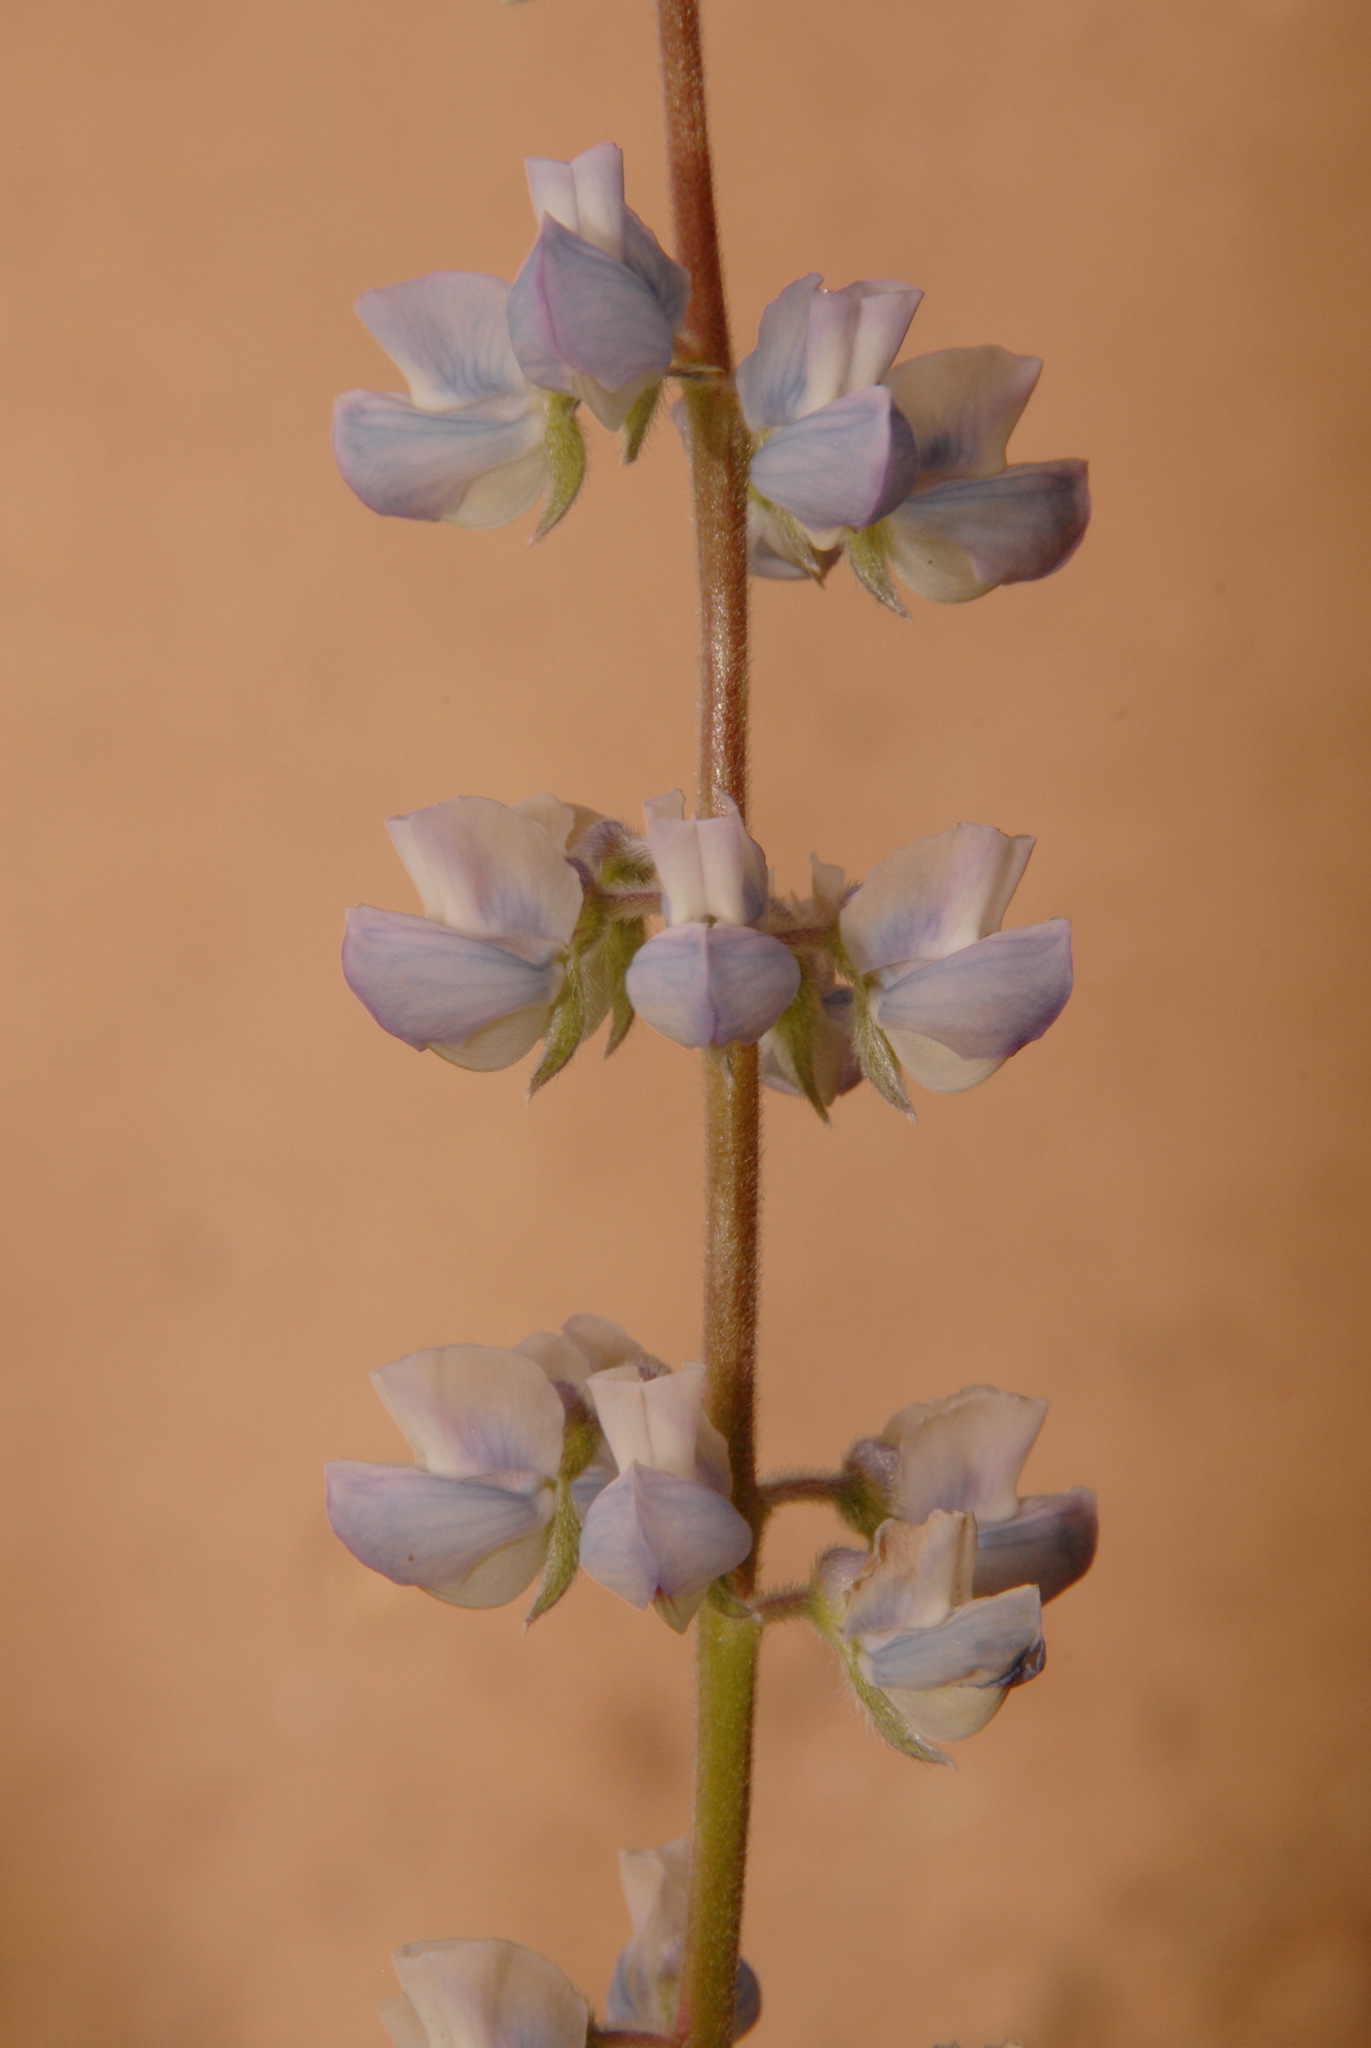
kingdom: Plantae
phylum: Tracheophyta
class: Magnoliopsida
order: Fabales
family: Fabaceae
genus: Lupinus
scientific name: Lupinus argenteus
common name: Silvery lupine
